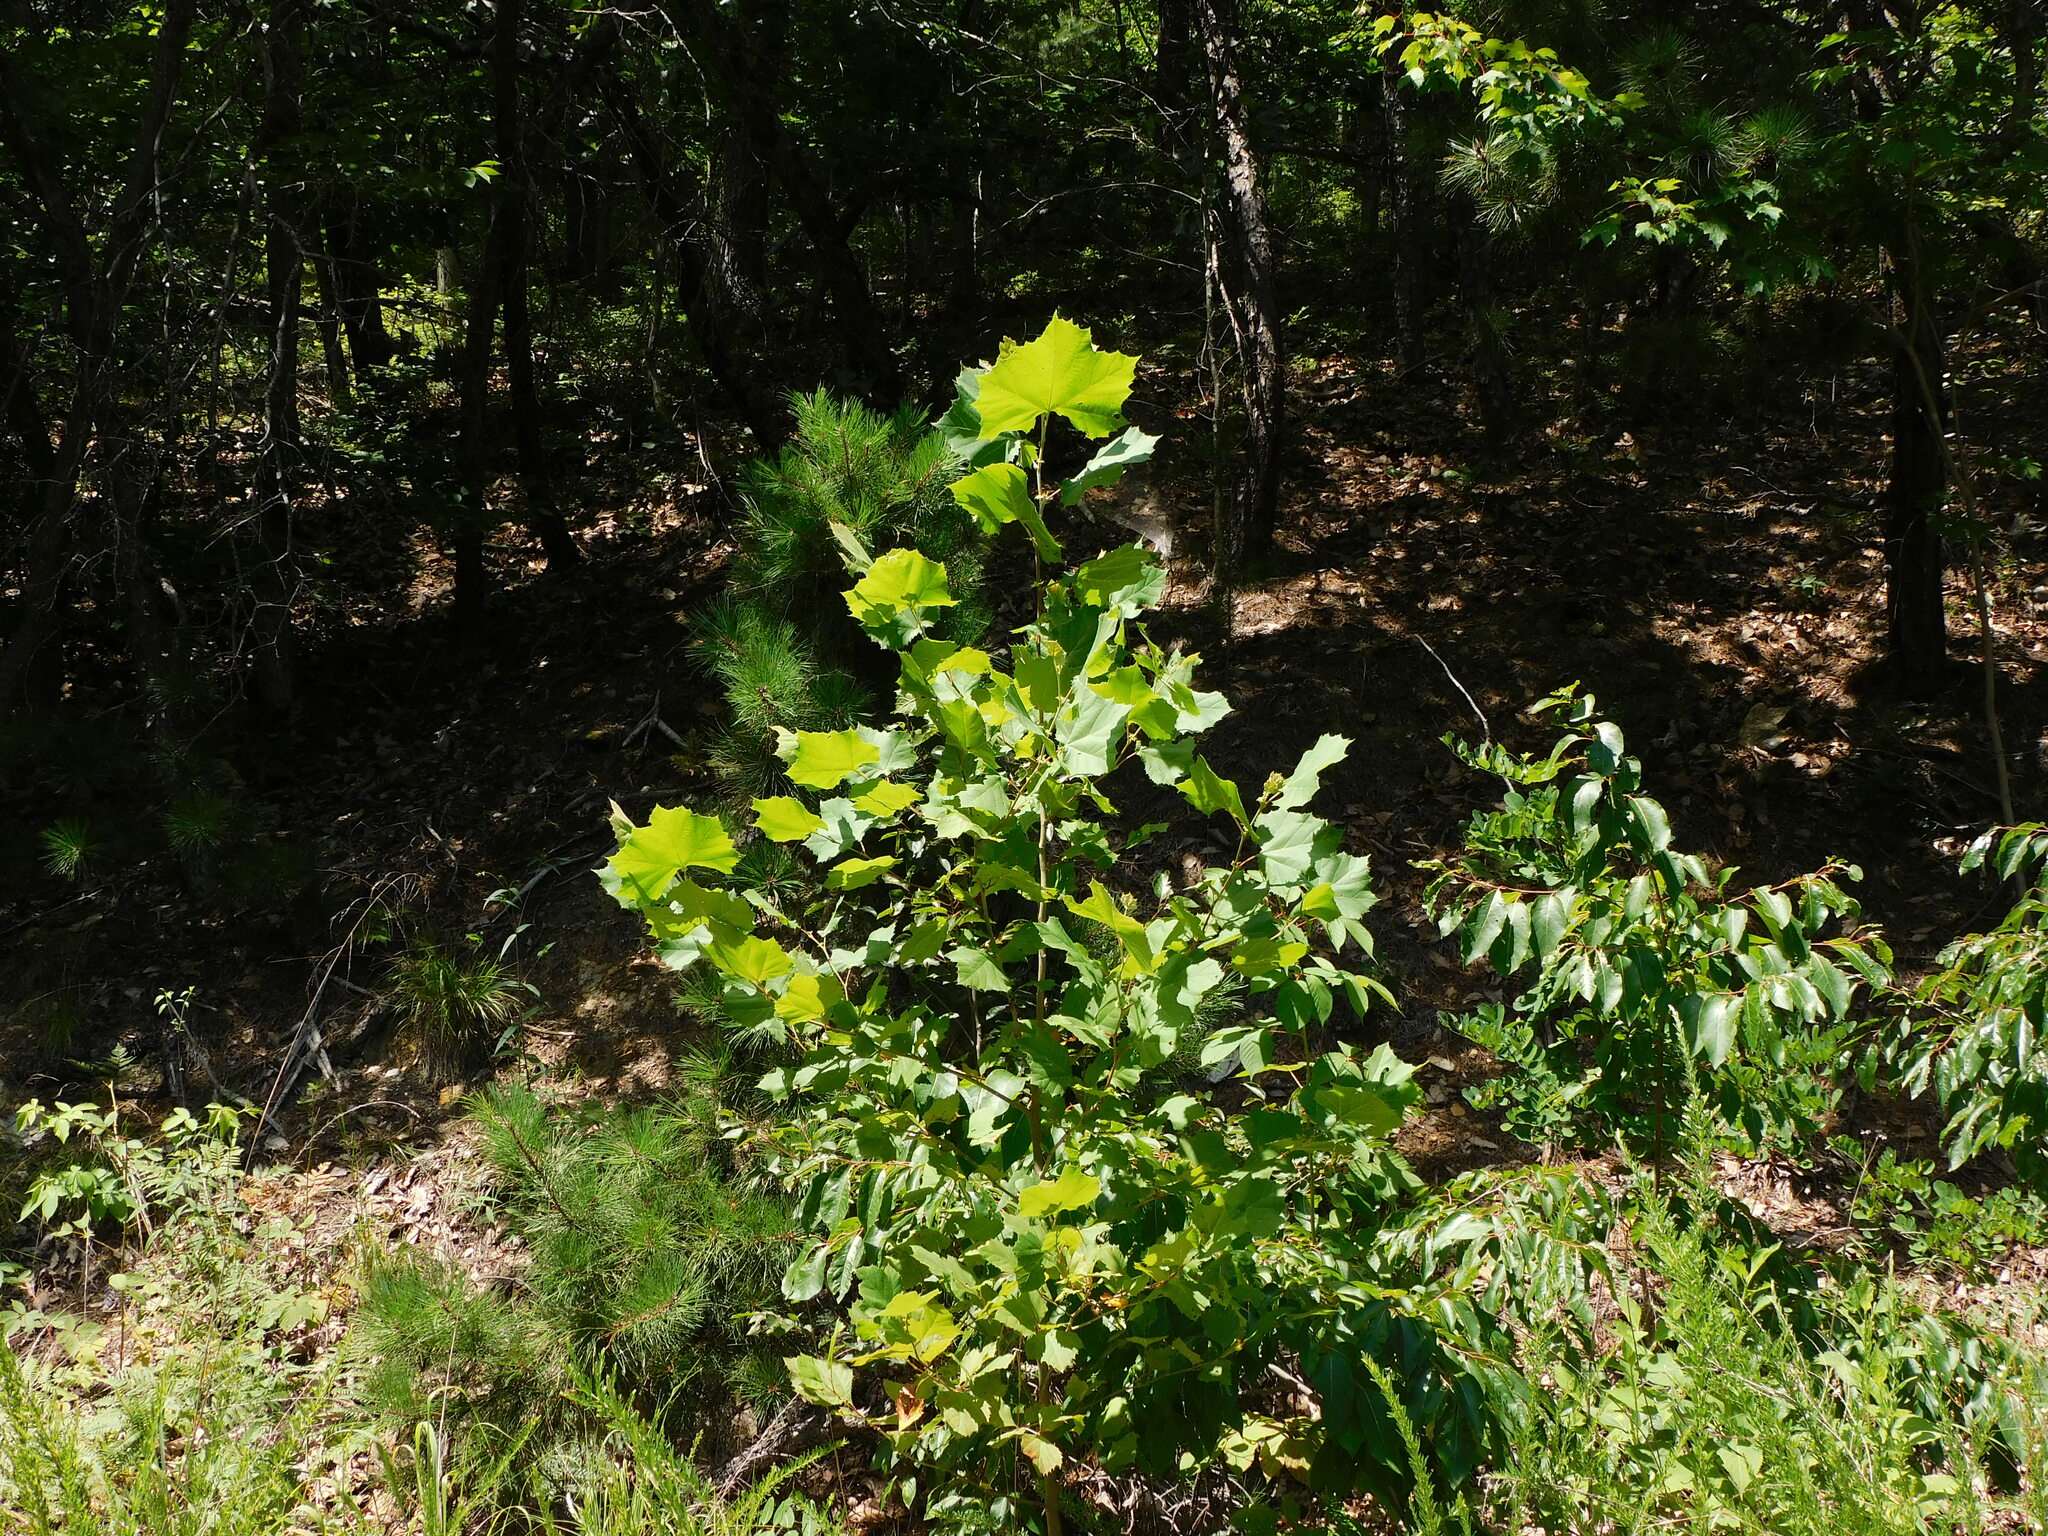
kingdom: Plantae
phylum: Tracheophyta
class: Magnoliopsida
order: Proteales
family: Platanaceae
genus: Platanus
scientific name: Platanus occidentalis
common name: American sycamore
